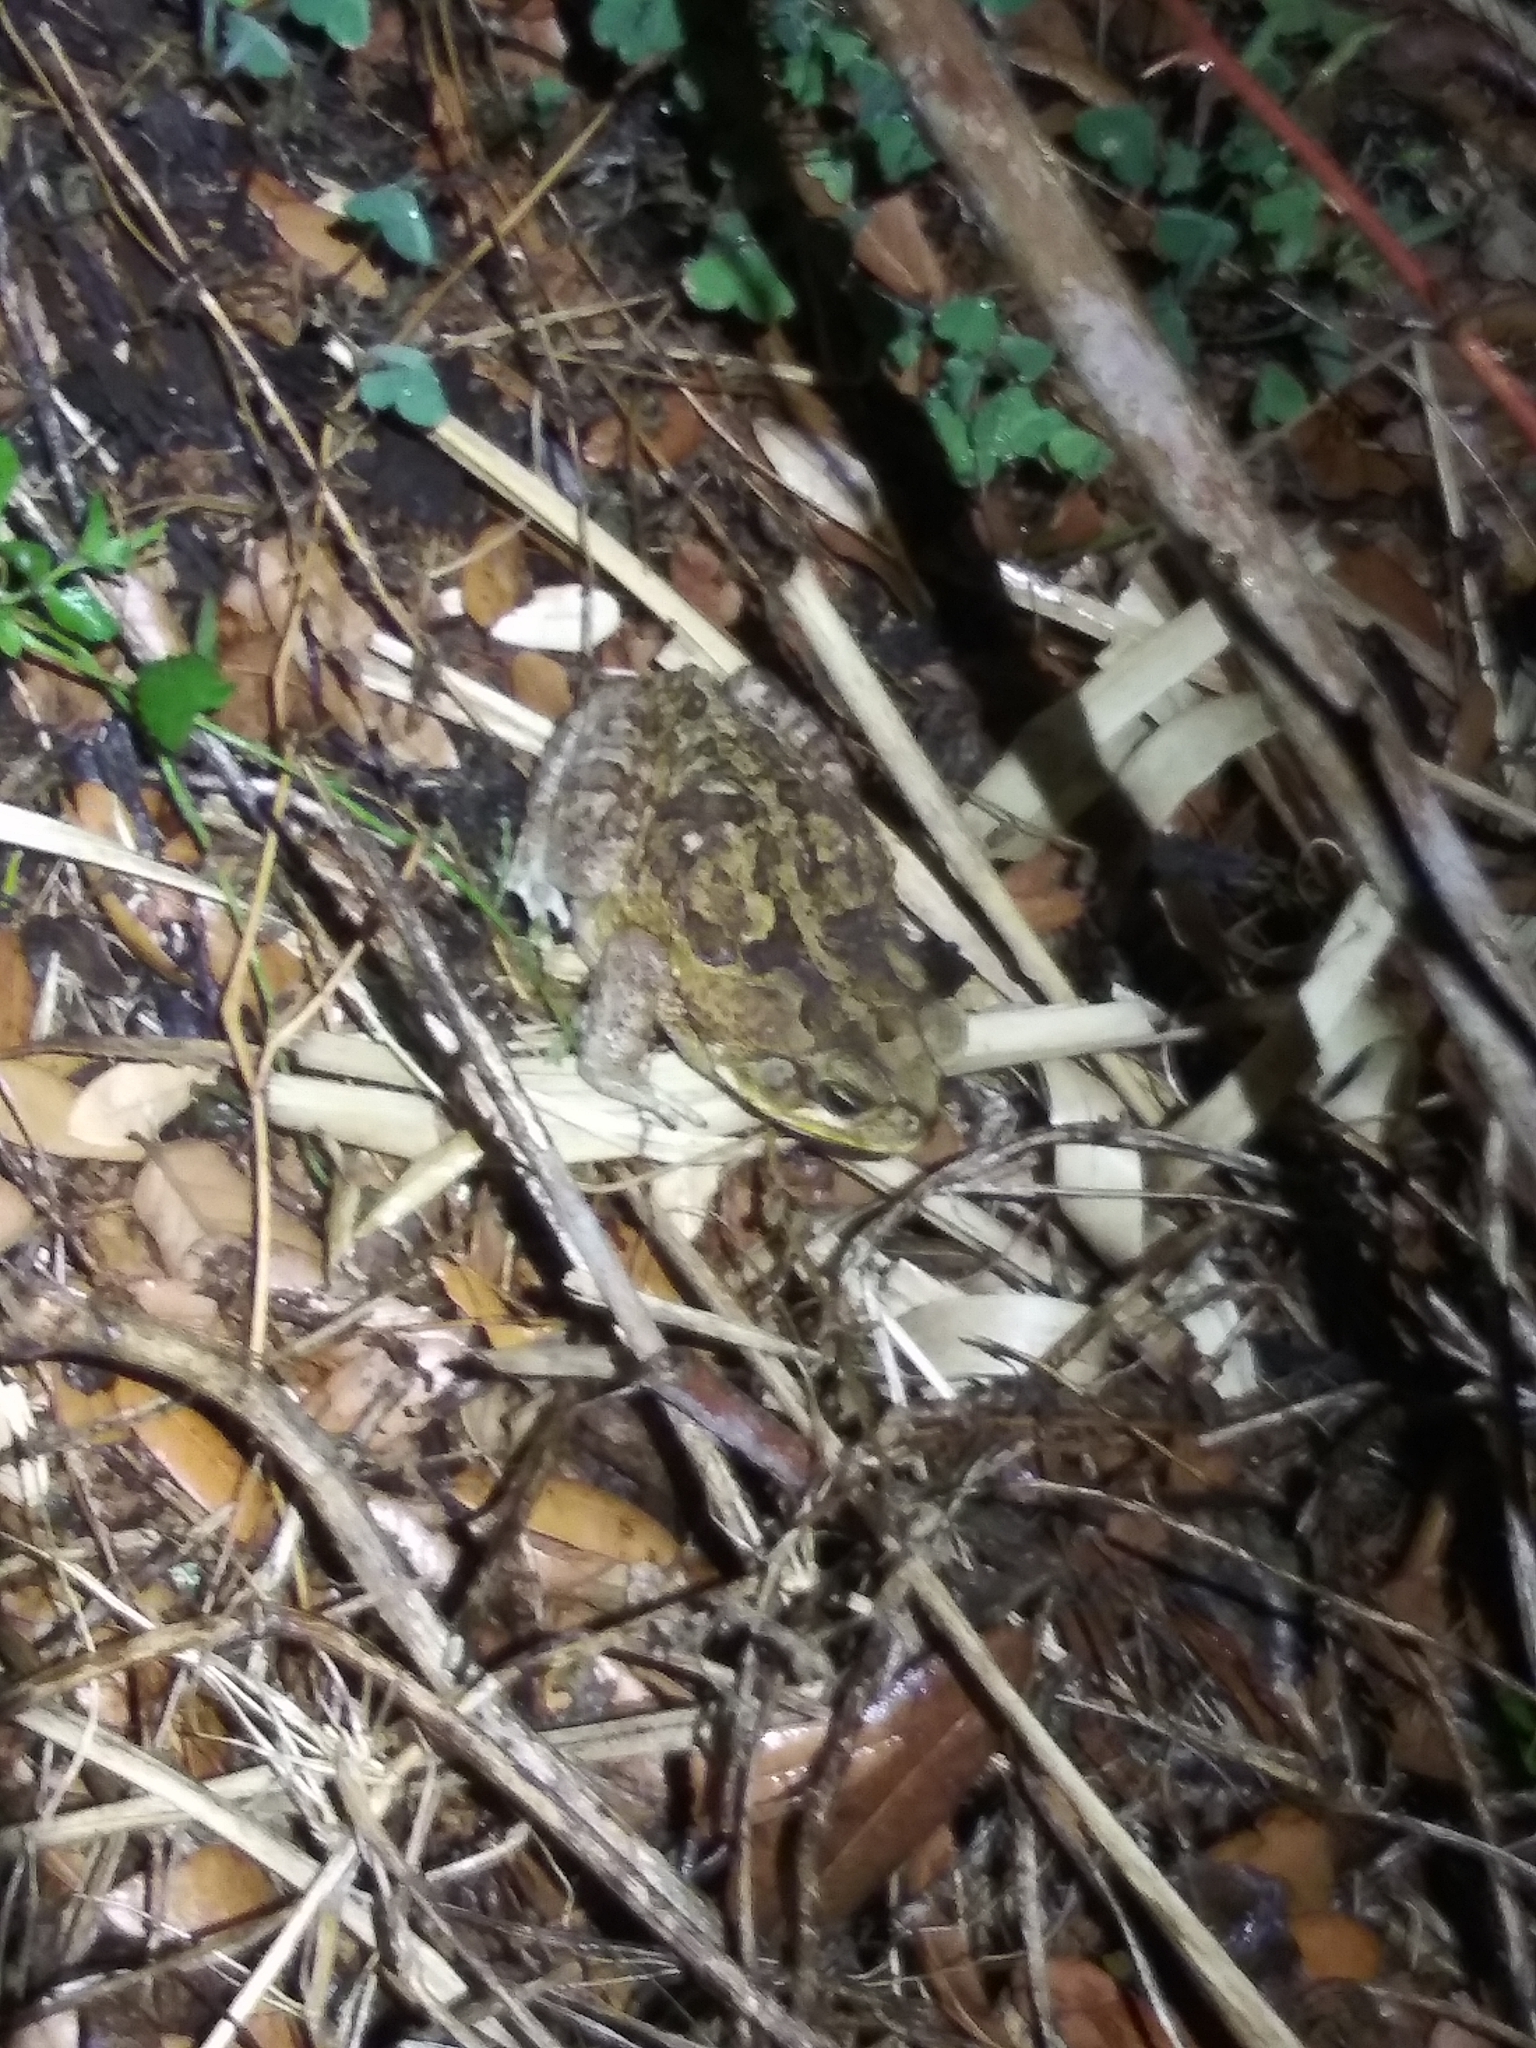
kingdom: Animalia
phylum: Chordata
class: Amphibia
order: Anura
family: Bufonidae
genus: Rhinella
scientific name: Rhinella marina
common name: Cane toad
